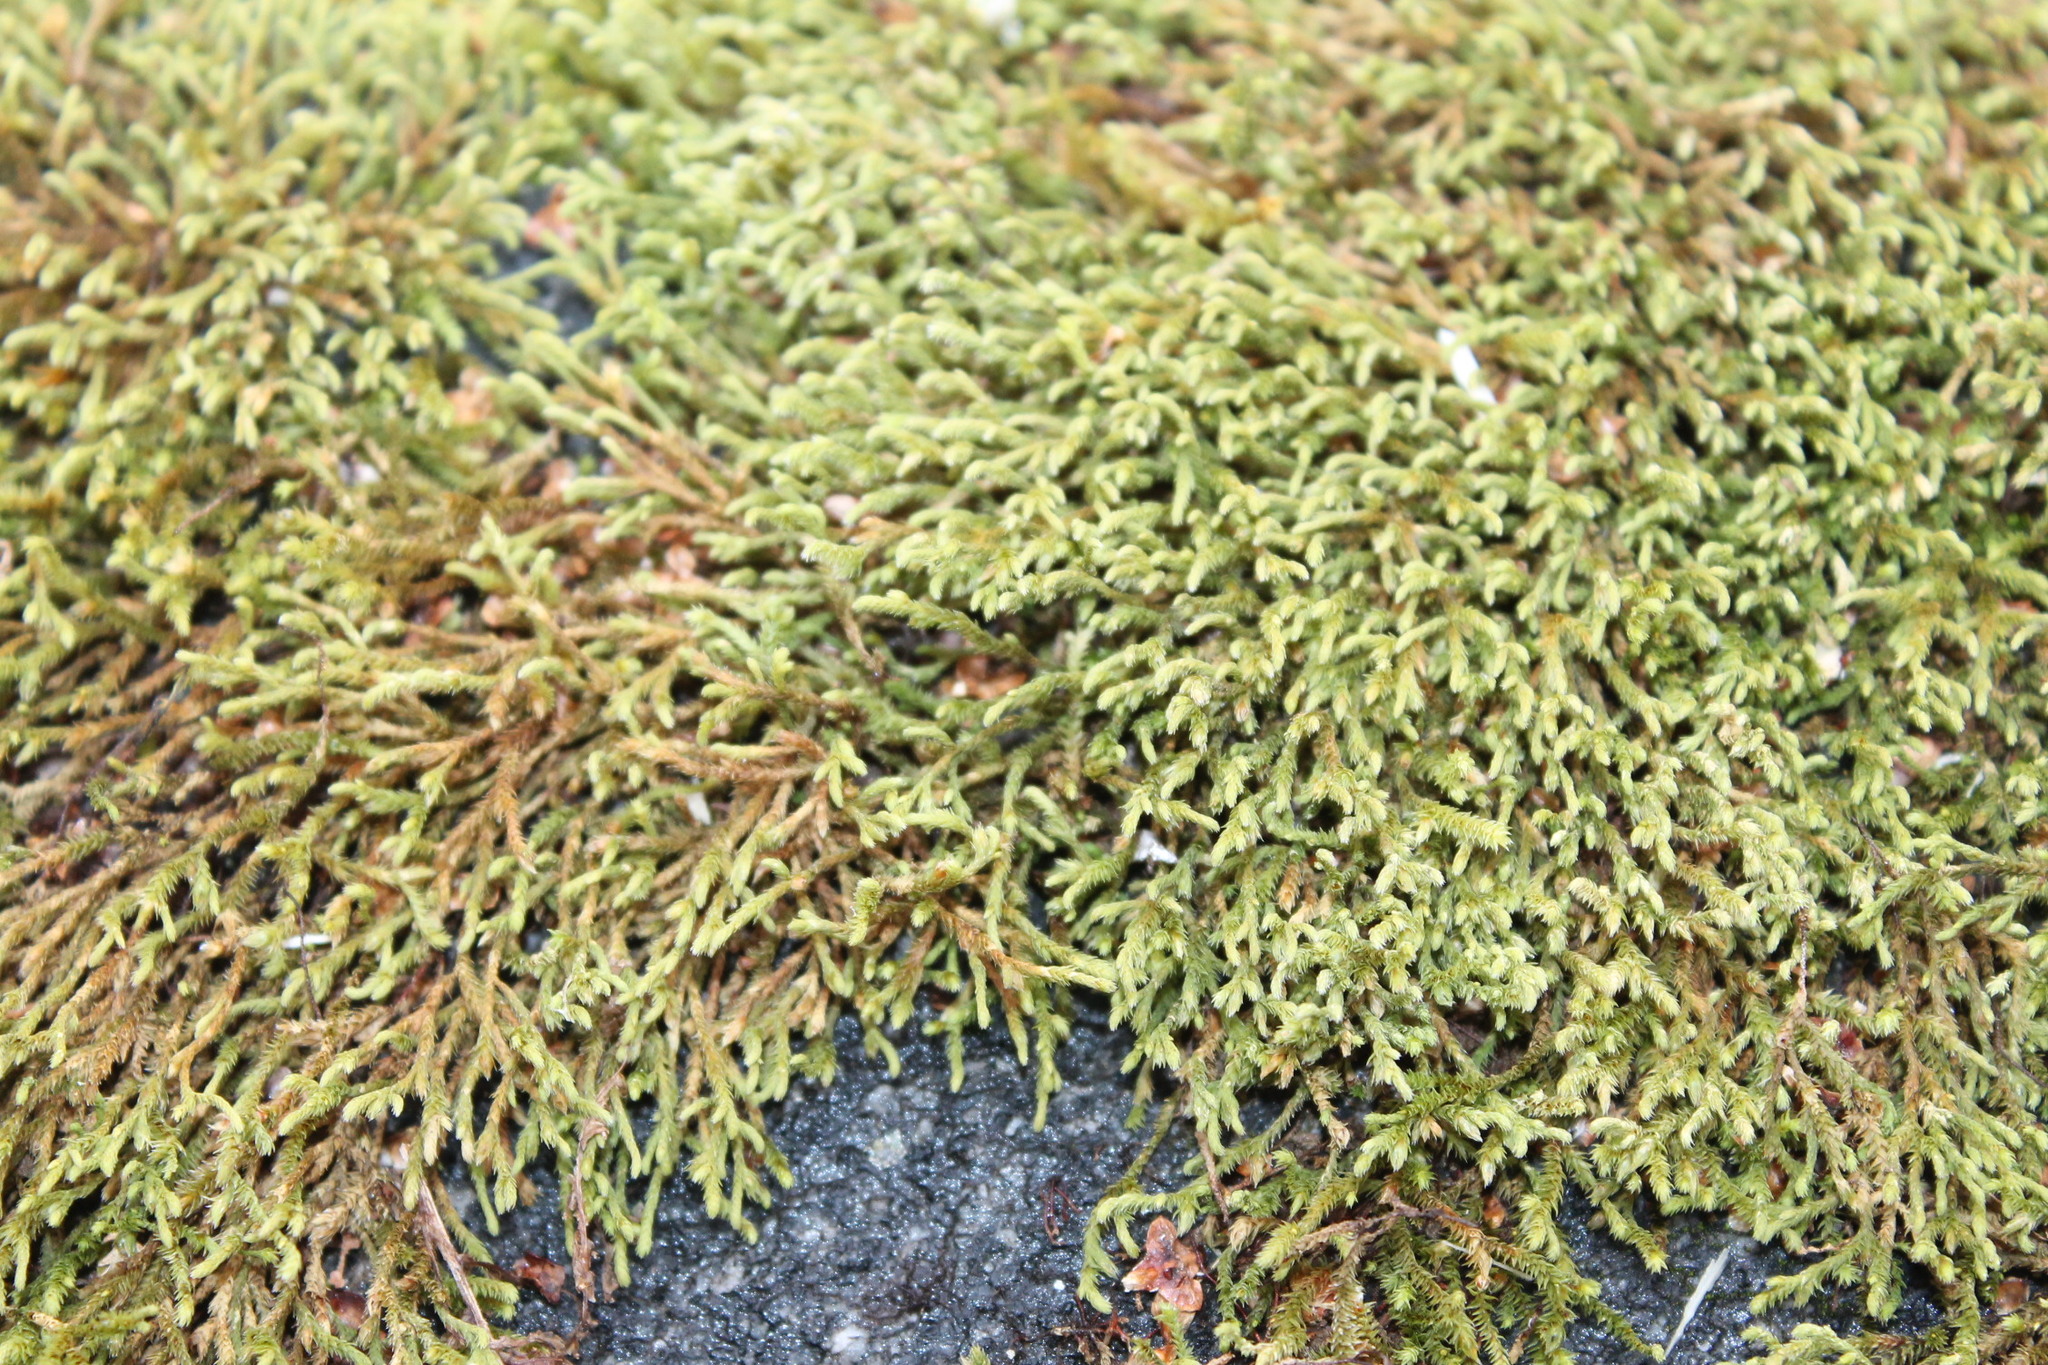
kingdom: Plantae
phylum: Bryophyta
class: Bryopsida
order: Hedwigiales
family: Hedwigiaceae
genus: Hedwigia
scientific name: Hedwigia ciliata
